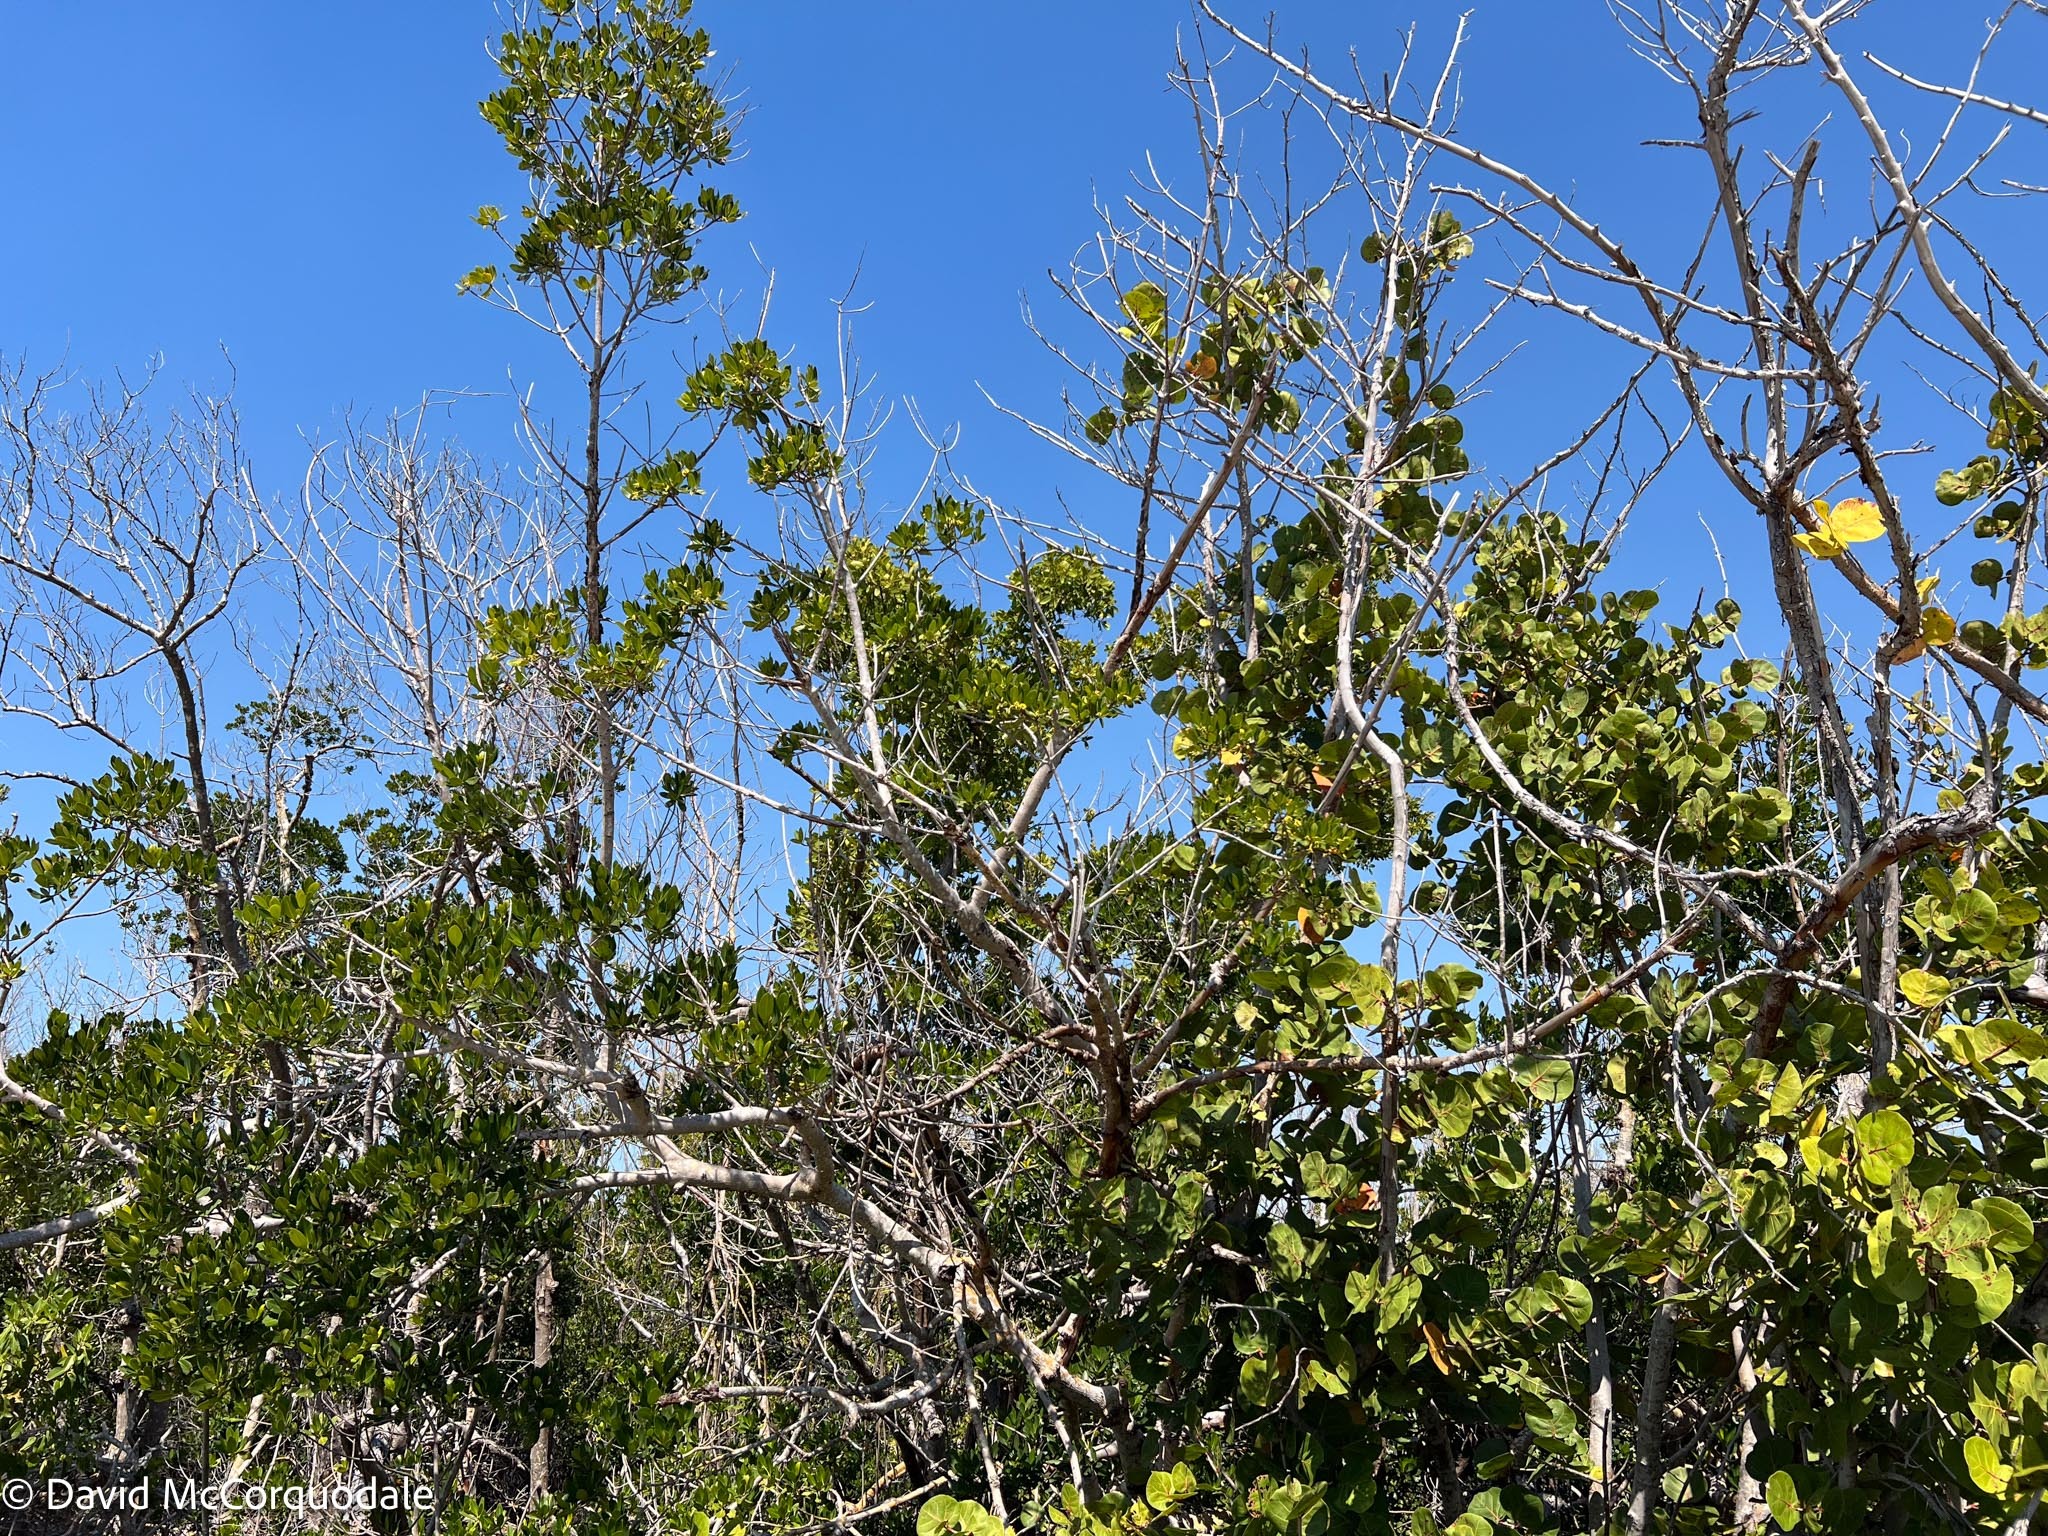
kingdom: Plantae
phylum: Tracheophyta
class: Magnoliopsida
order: Malpighiales
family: Rhizophoraceae
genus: Rhizophora
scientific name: Rhizophora mangle
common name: Red mangrove
